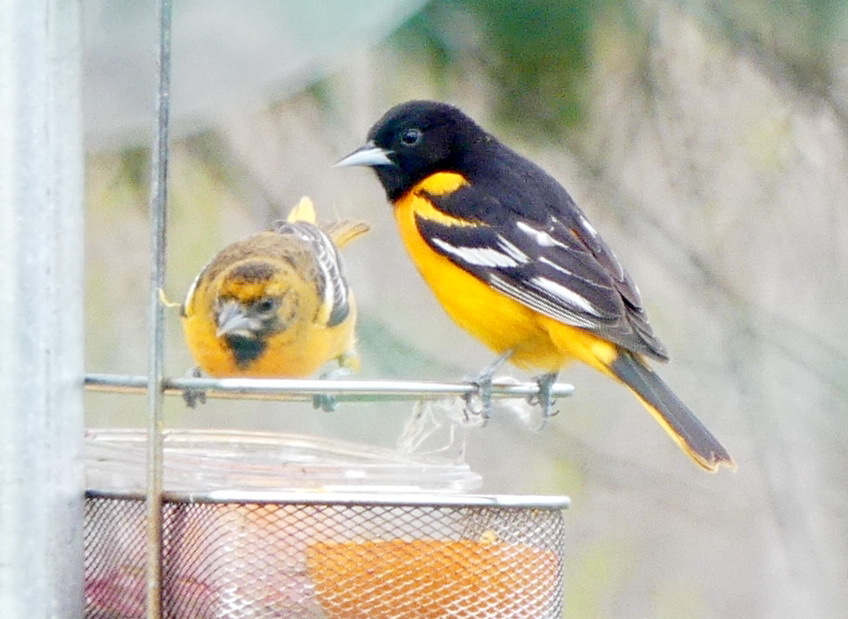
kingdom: Animalia
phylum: Chordata
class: Aves
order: Passeriformes
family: Icteridae
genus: Icterus
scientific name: Icterus galbula
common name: Baltimore oriole
